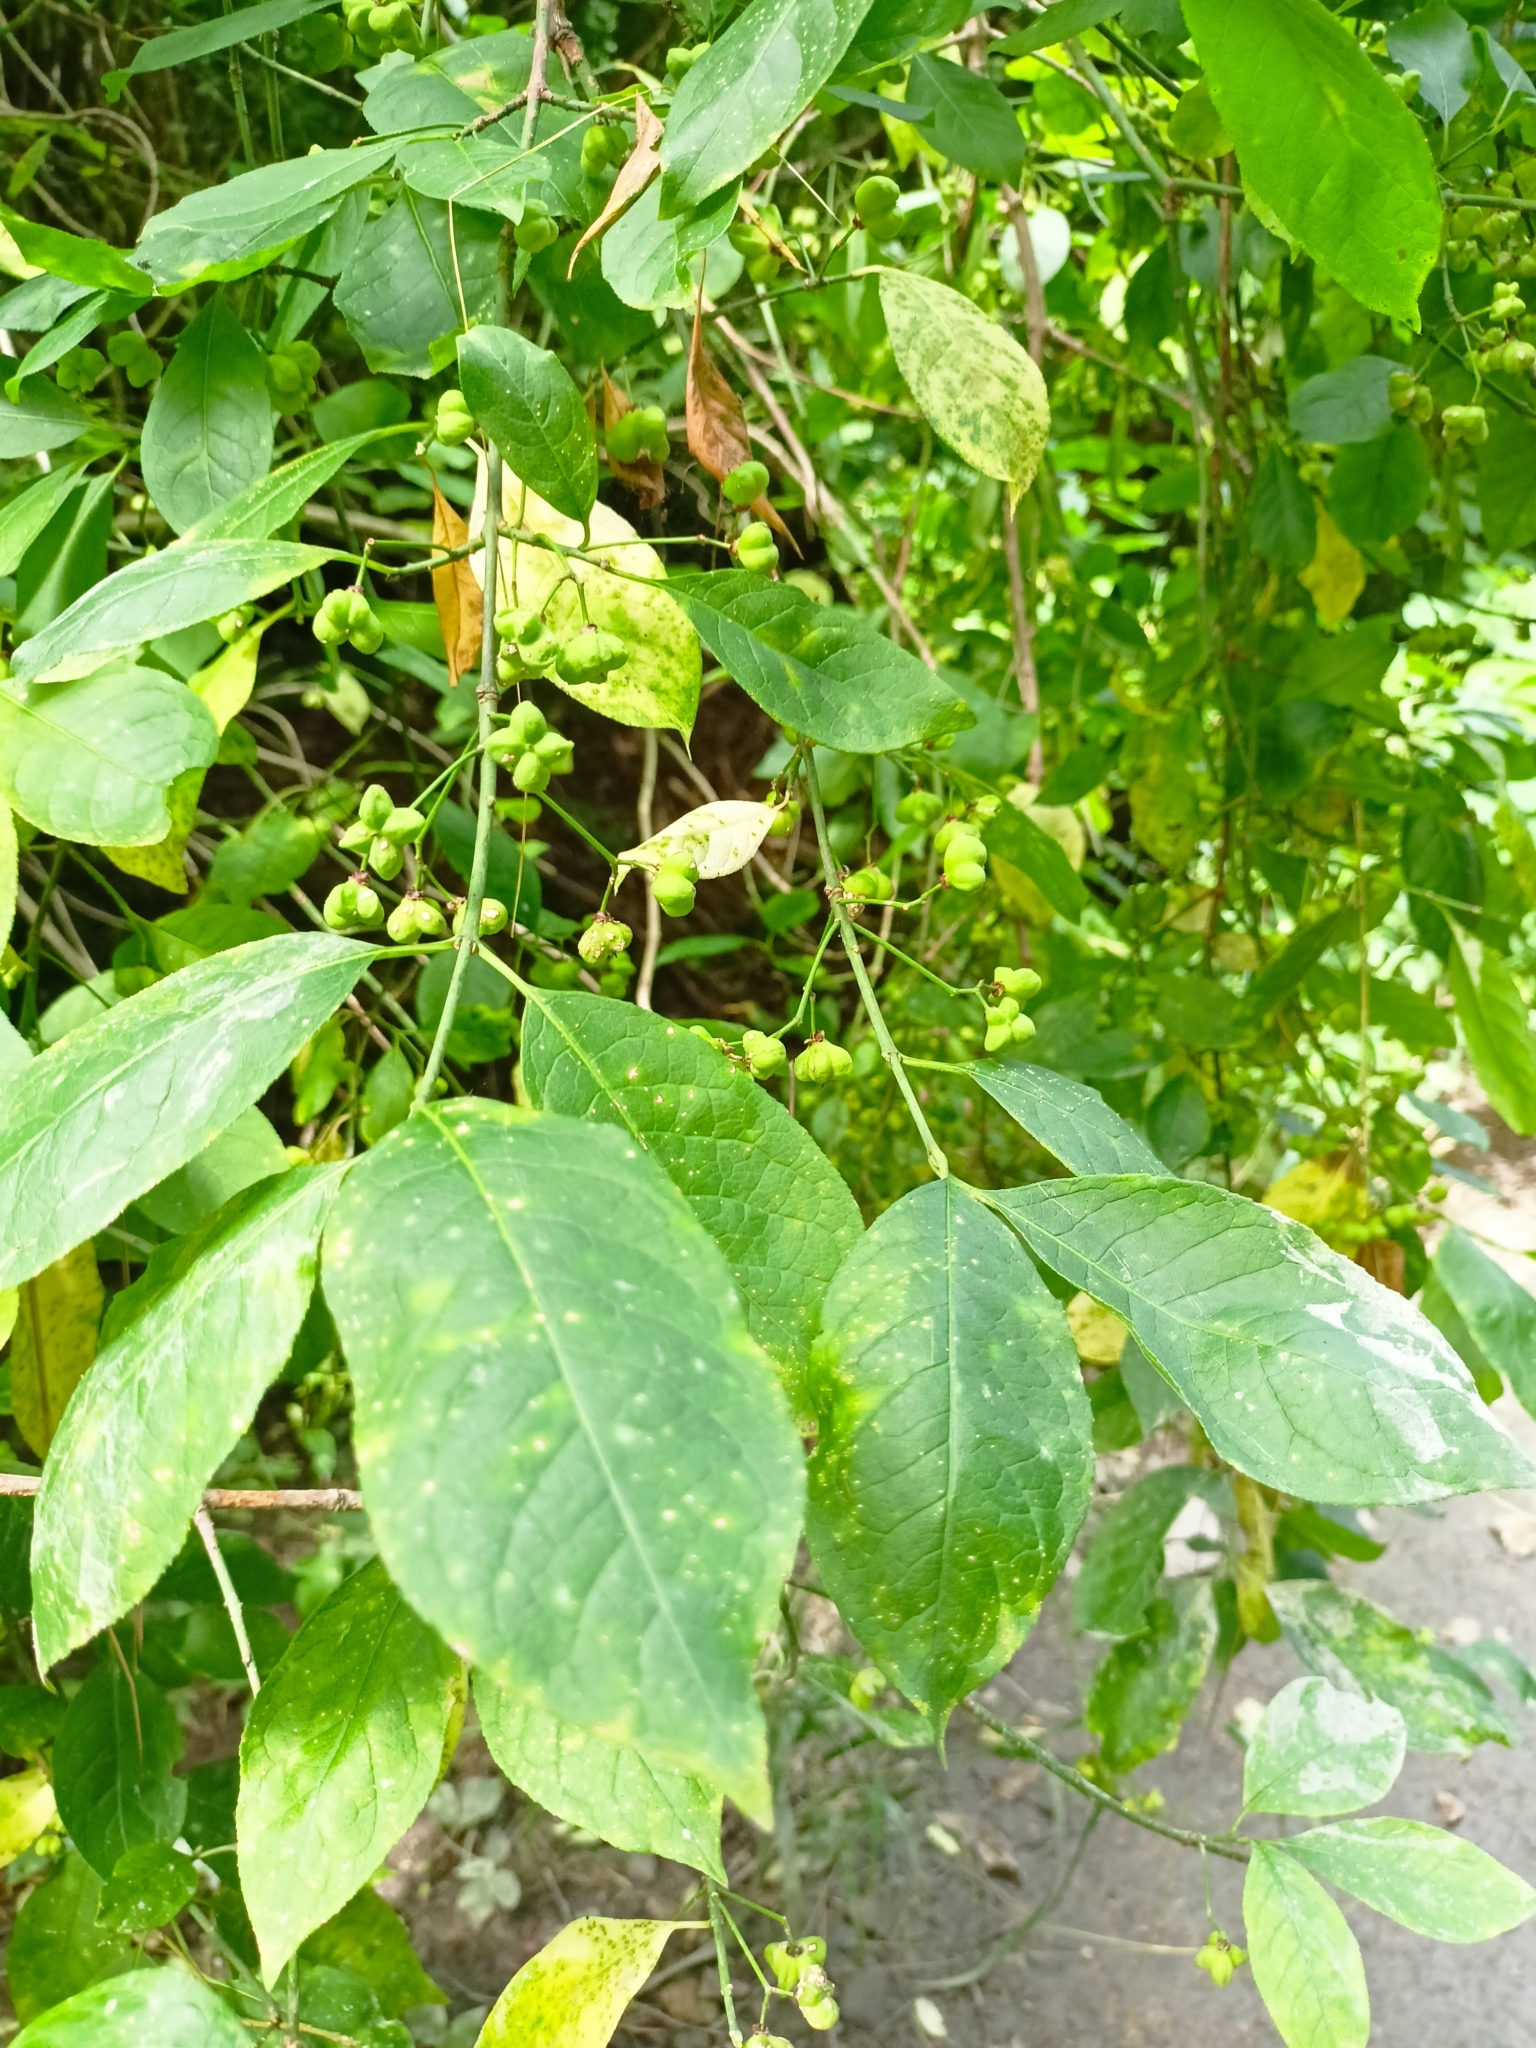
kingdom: Plantae
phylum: Tracheophyta
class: Magnoliopsida
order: Celastrales
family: Celastraceae
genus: Euonymus
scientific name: Euonymus europaeus
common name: Spindle
